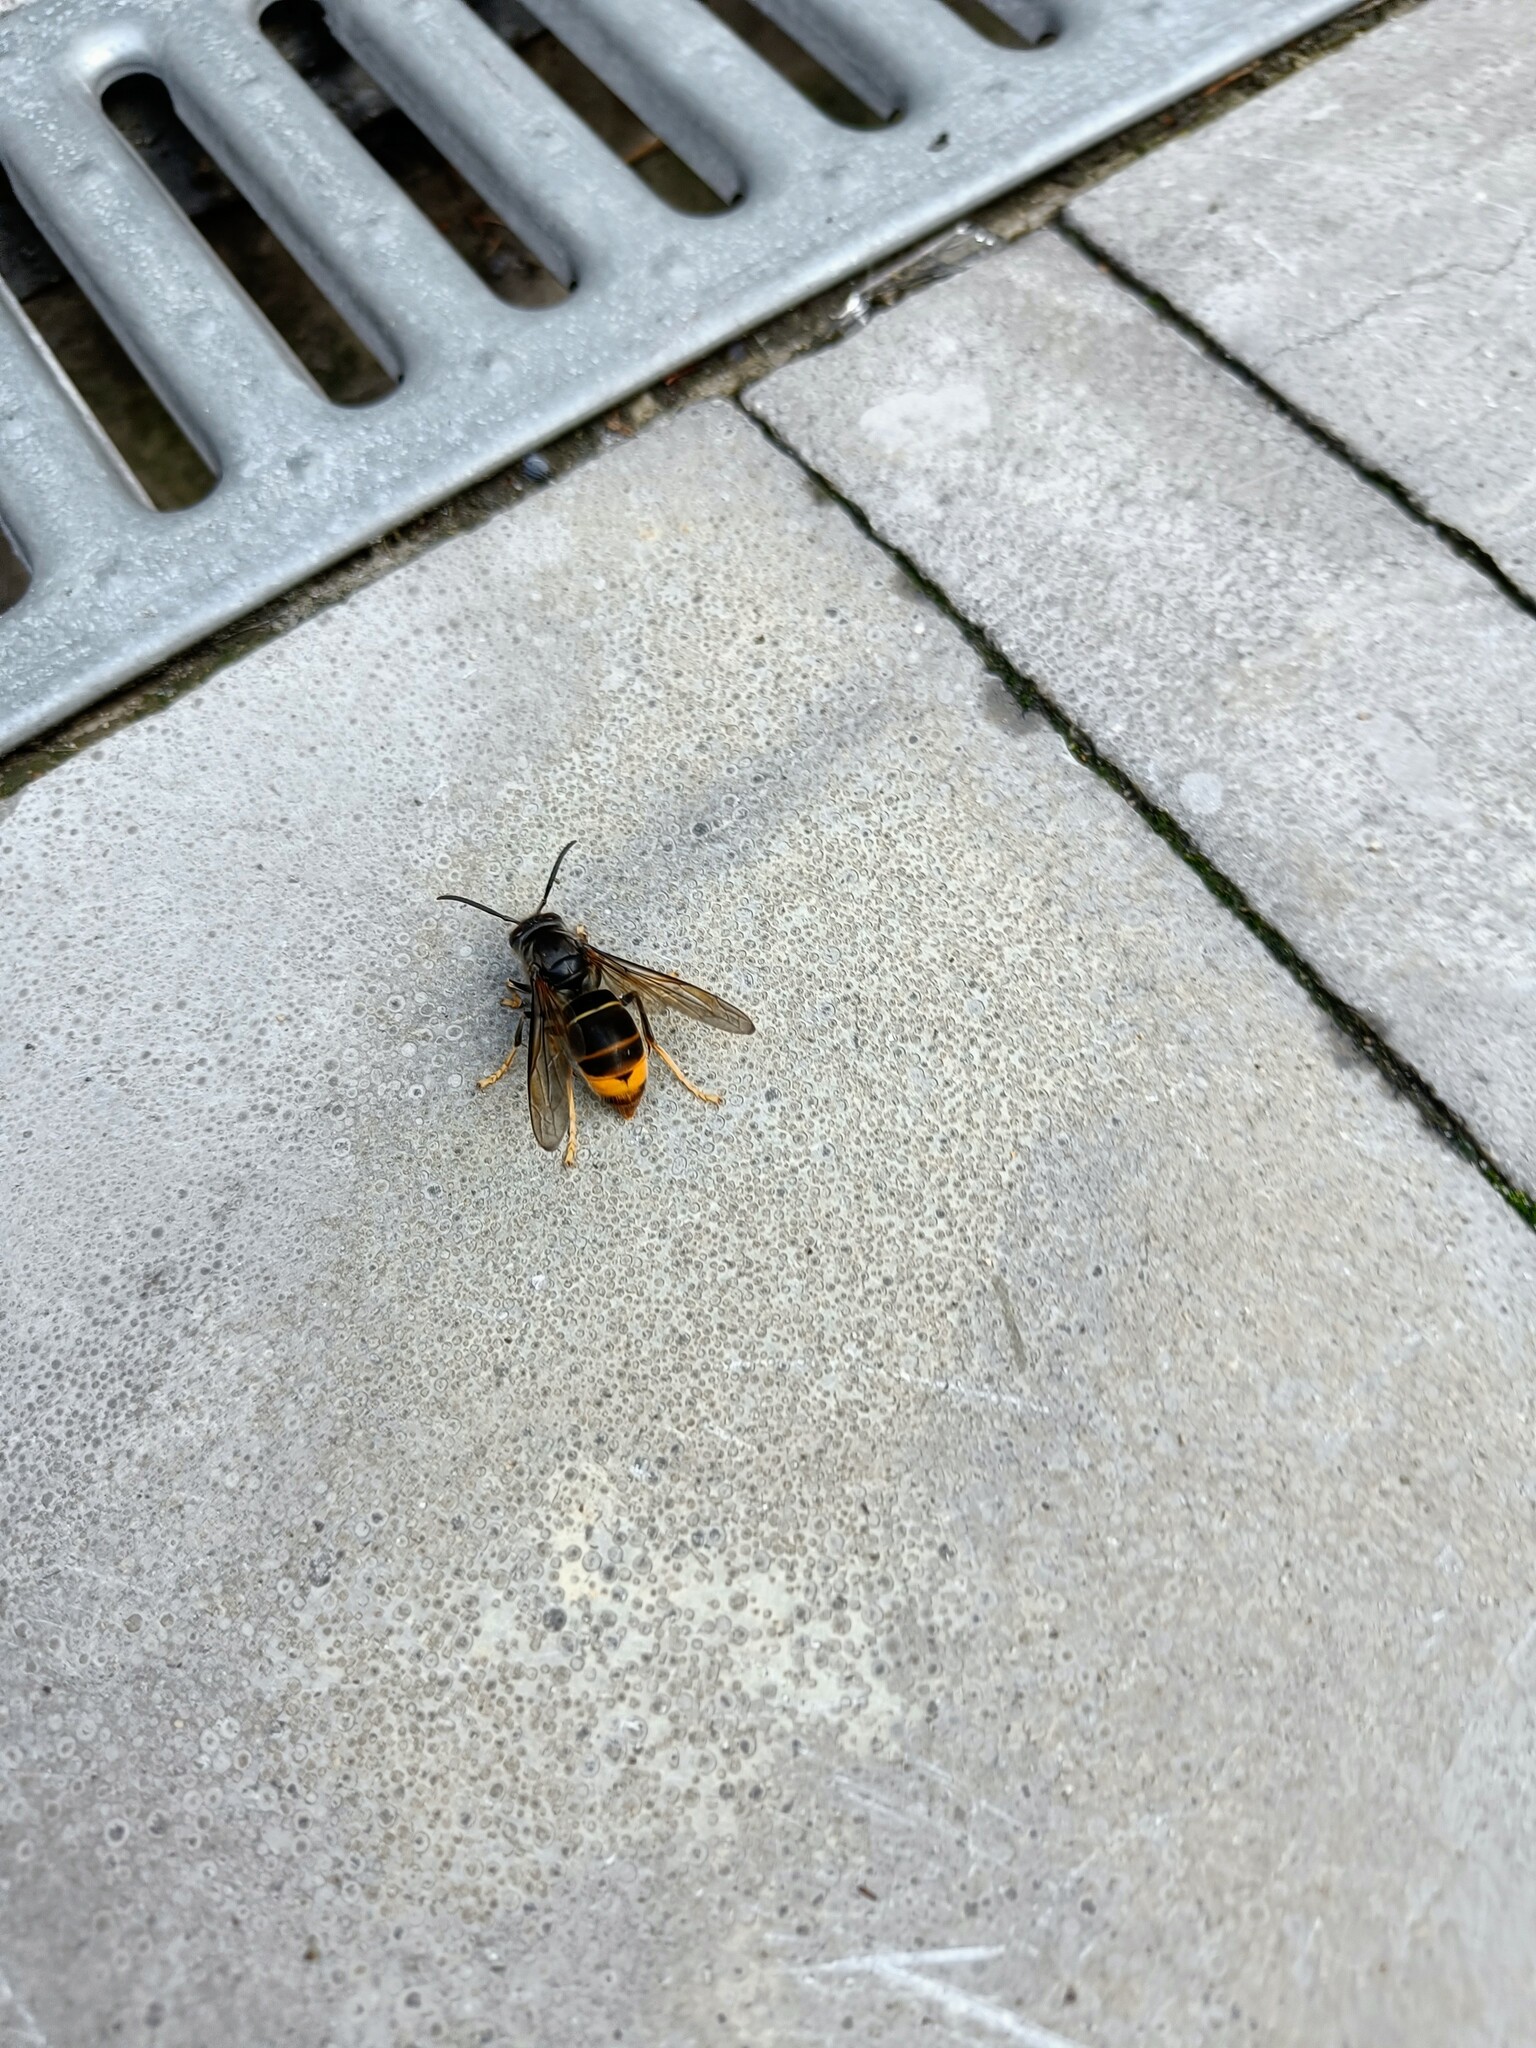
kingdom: Animalia
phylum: Arthropoda
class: Insecta
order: Hymenoptera
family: Vespidae
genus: Vespa
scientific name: Vespa velutina
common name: Asian hornet
